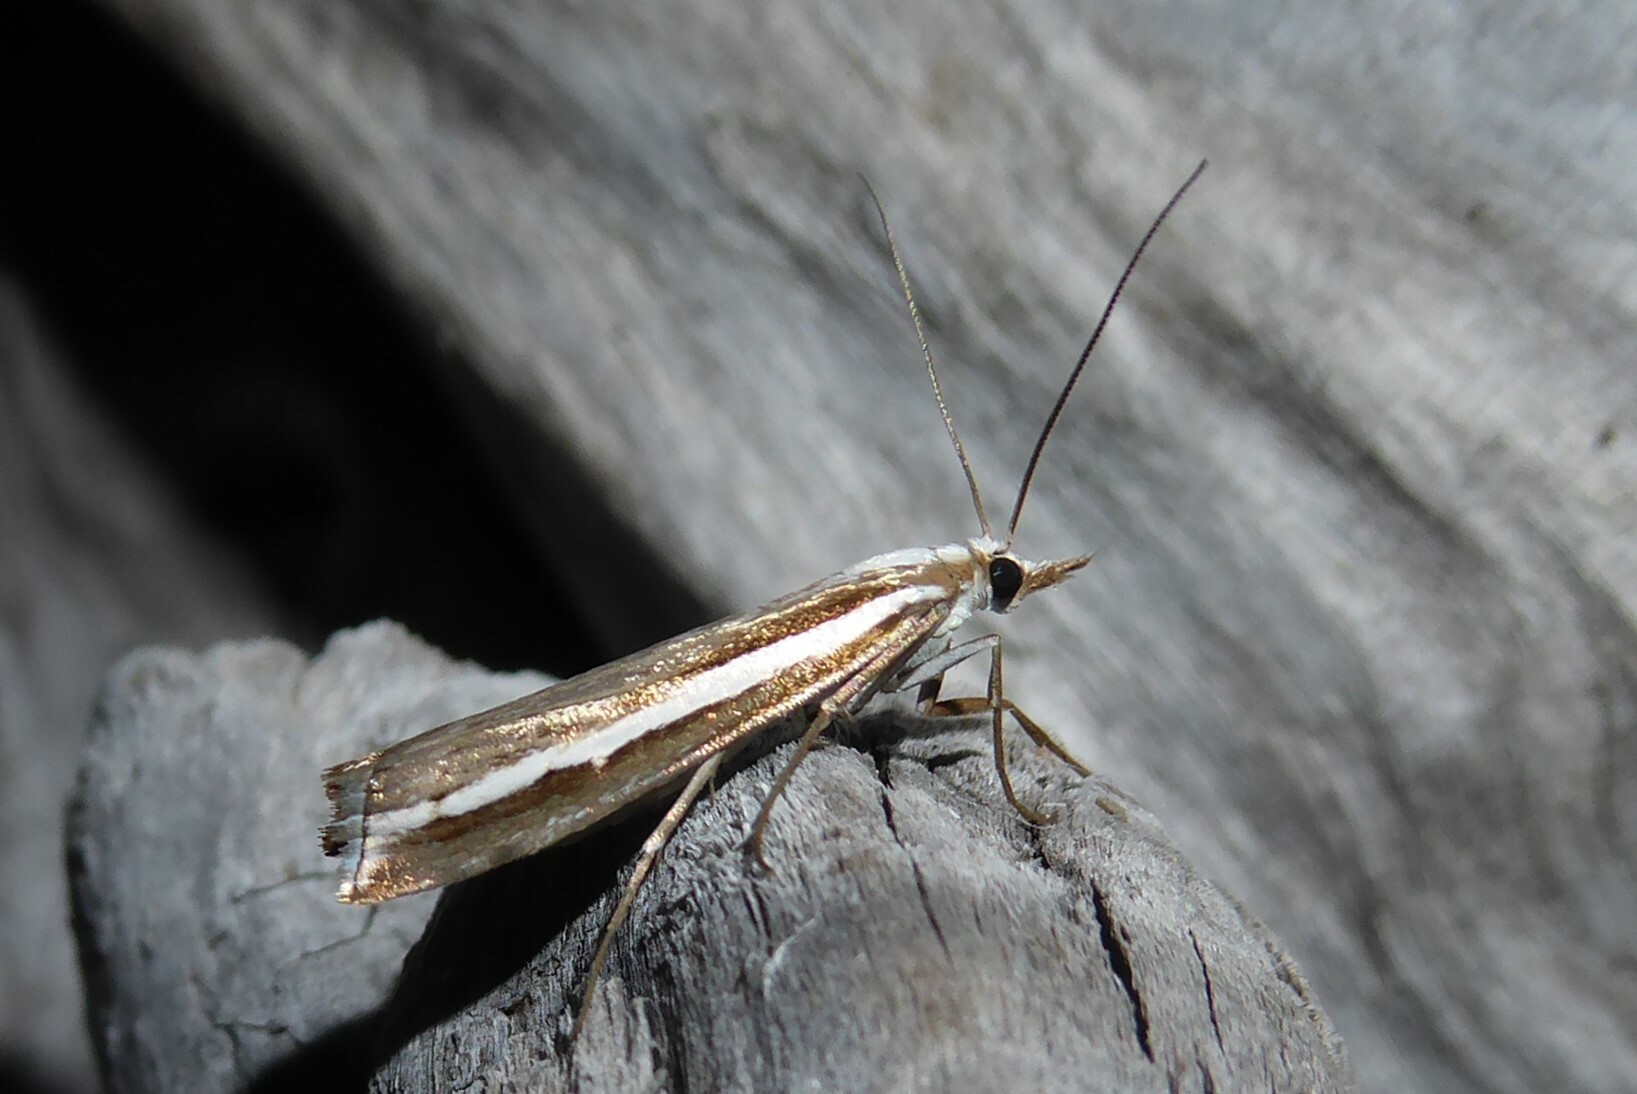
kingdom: Animalia
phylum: Arthropoda
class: Insecta
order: Lepidoptera
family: Crambidae
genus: Orocrambus
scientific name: Orocrambus vittellus
